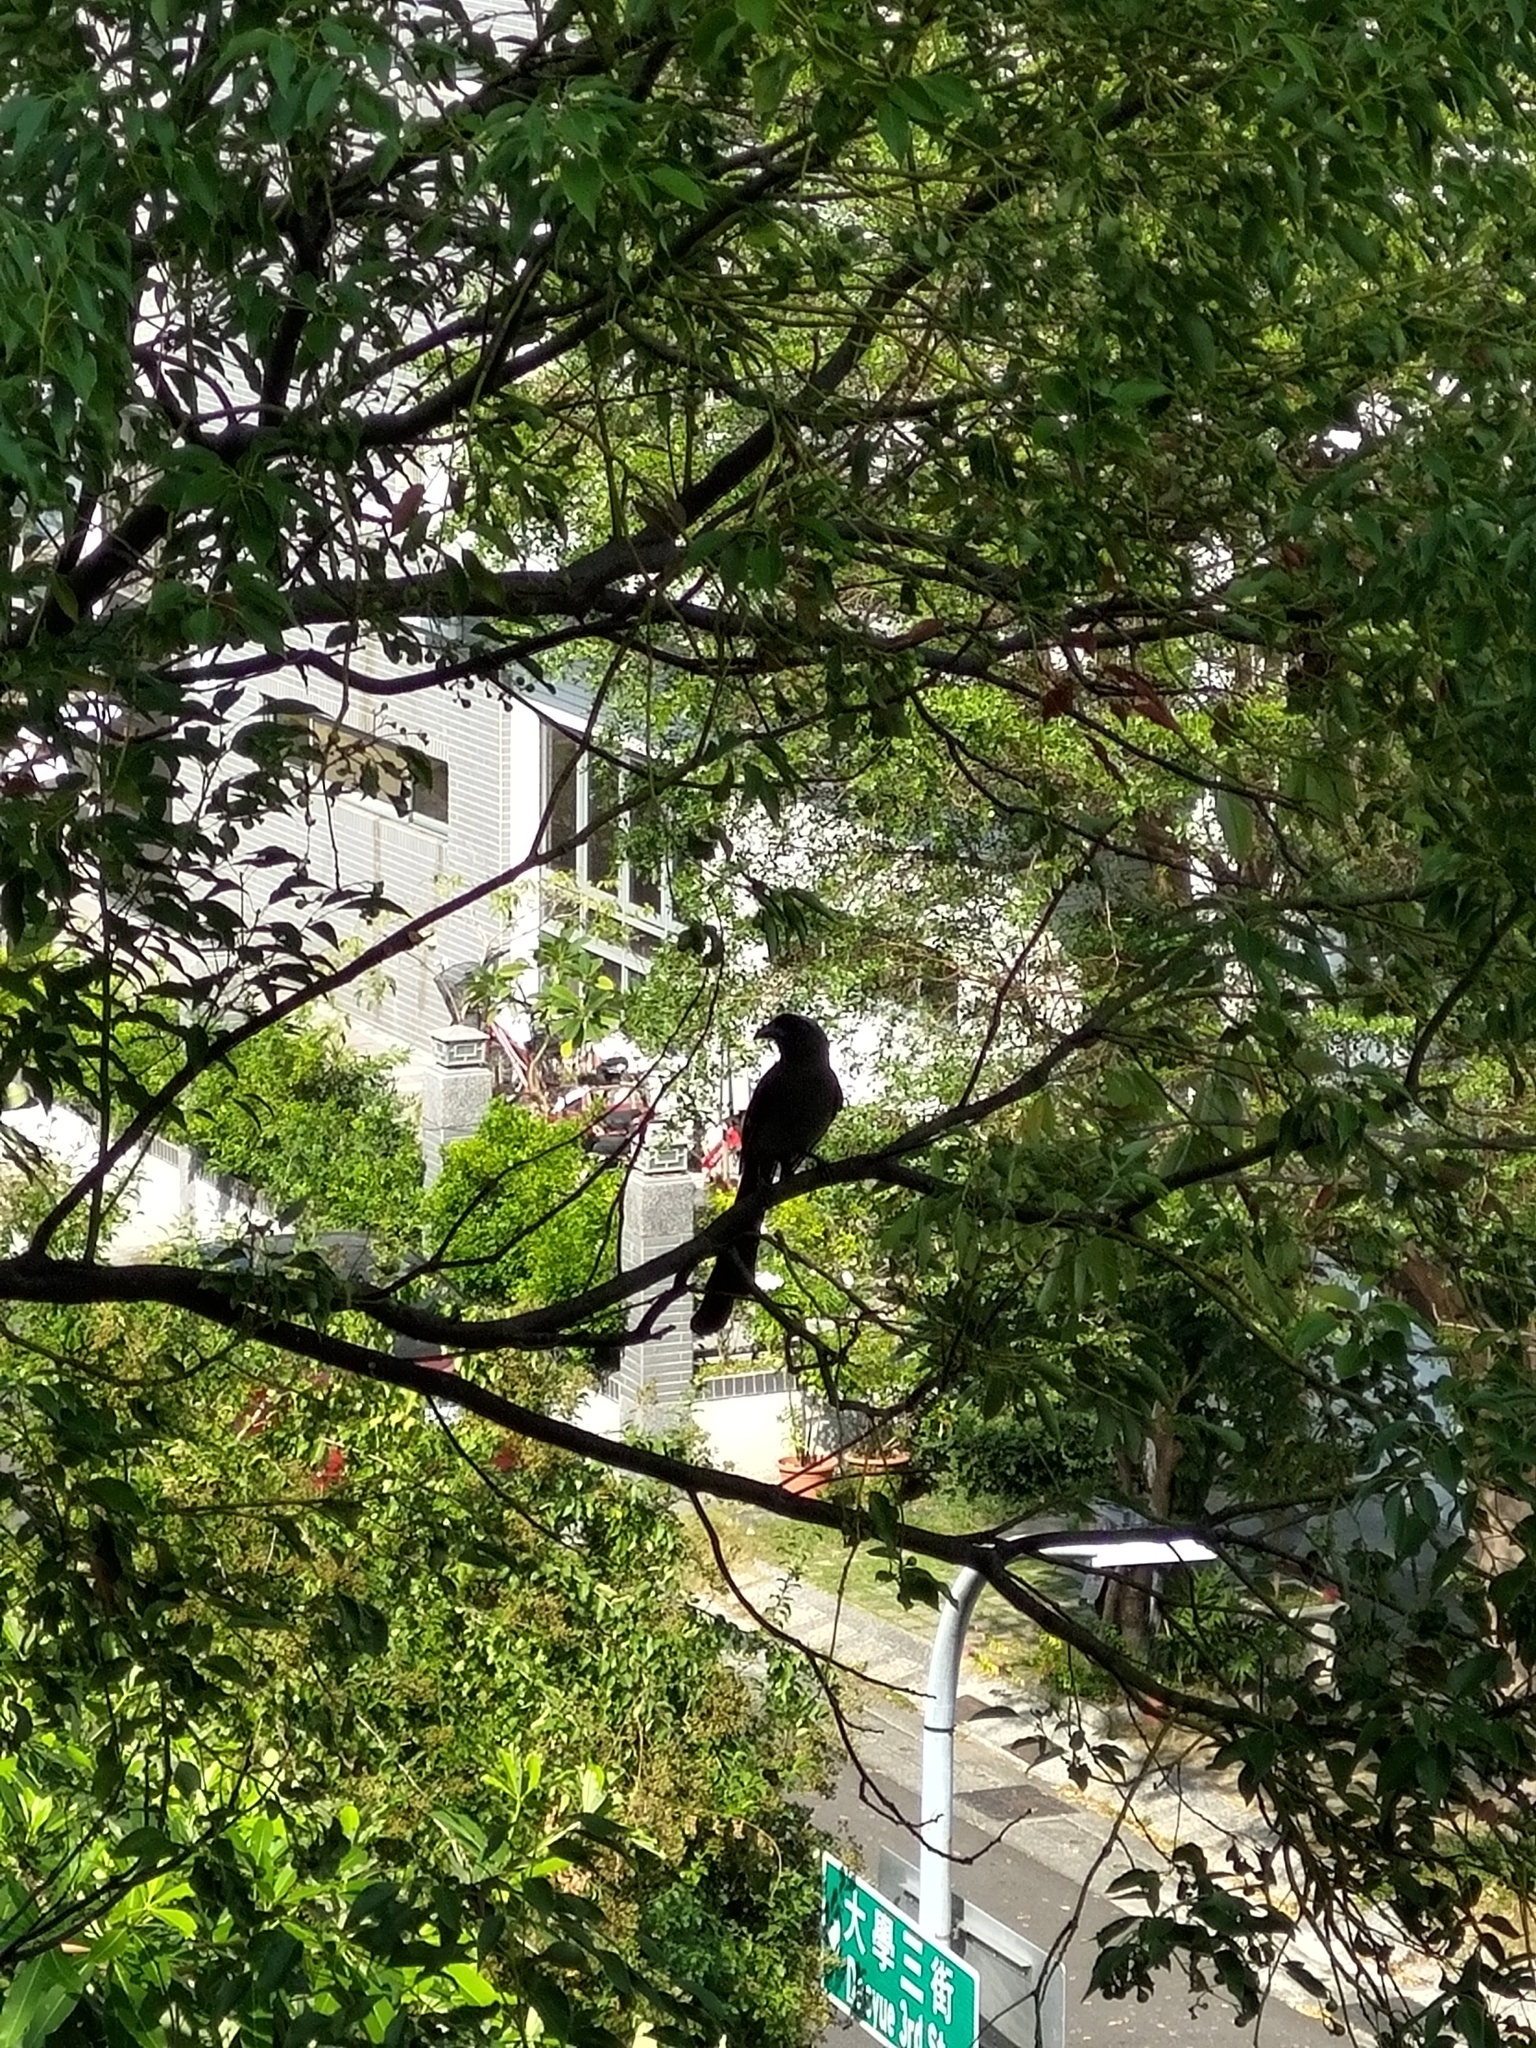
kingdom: Animalia
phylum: Chordata
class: Aves
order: Passeriformes
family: Corvidae
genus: Dendrocitta
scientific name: Dendrocitta formosae
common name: Grey treepie
